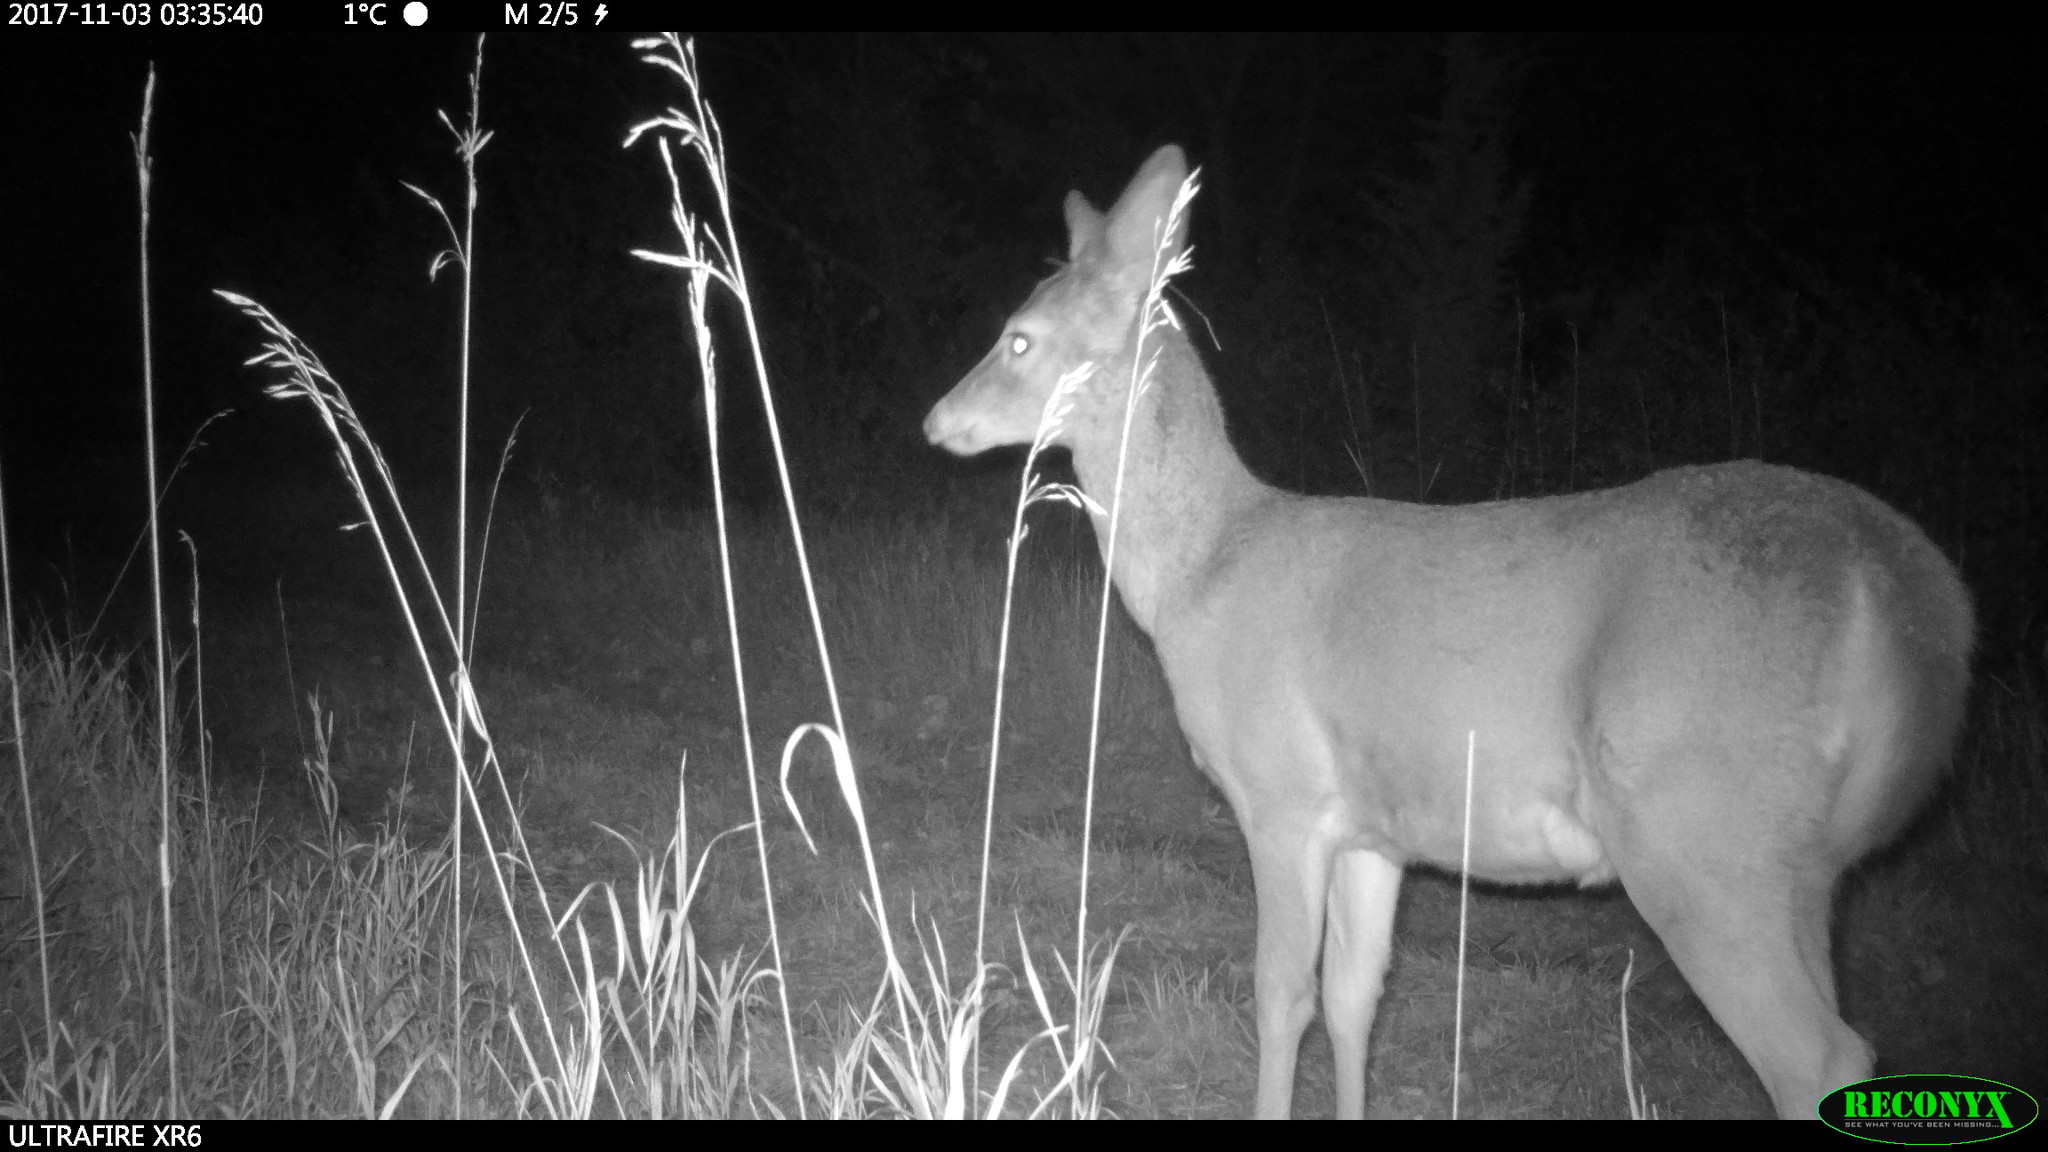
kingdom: Animalia
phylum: Chordata
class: Mammalia
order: Artiodactyla
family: Cervidae
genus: Odocoileus
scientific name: Odocoileus virginianus
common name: White-tailed deer
